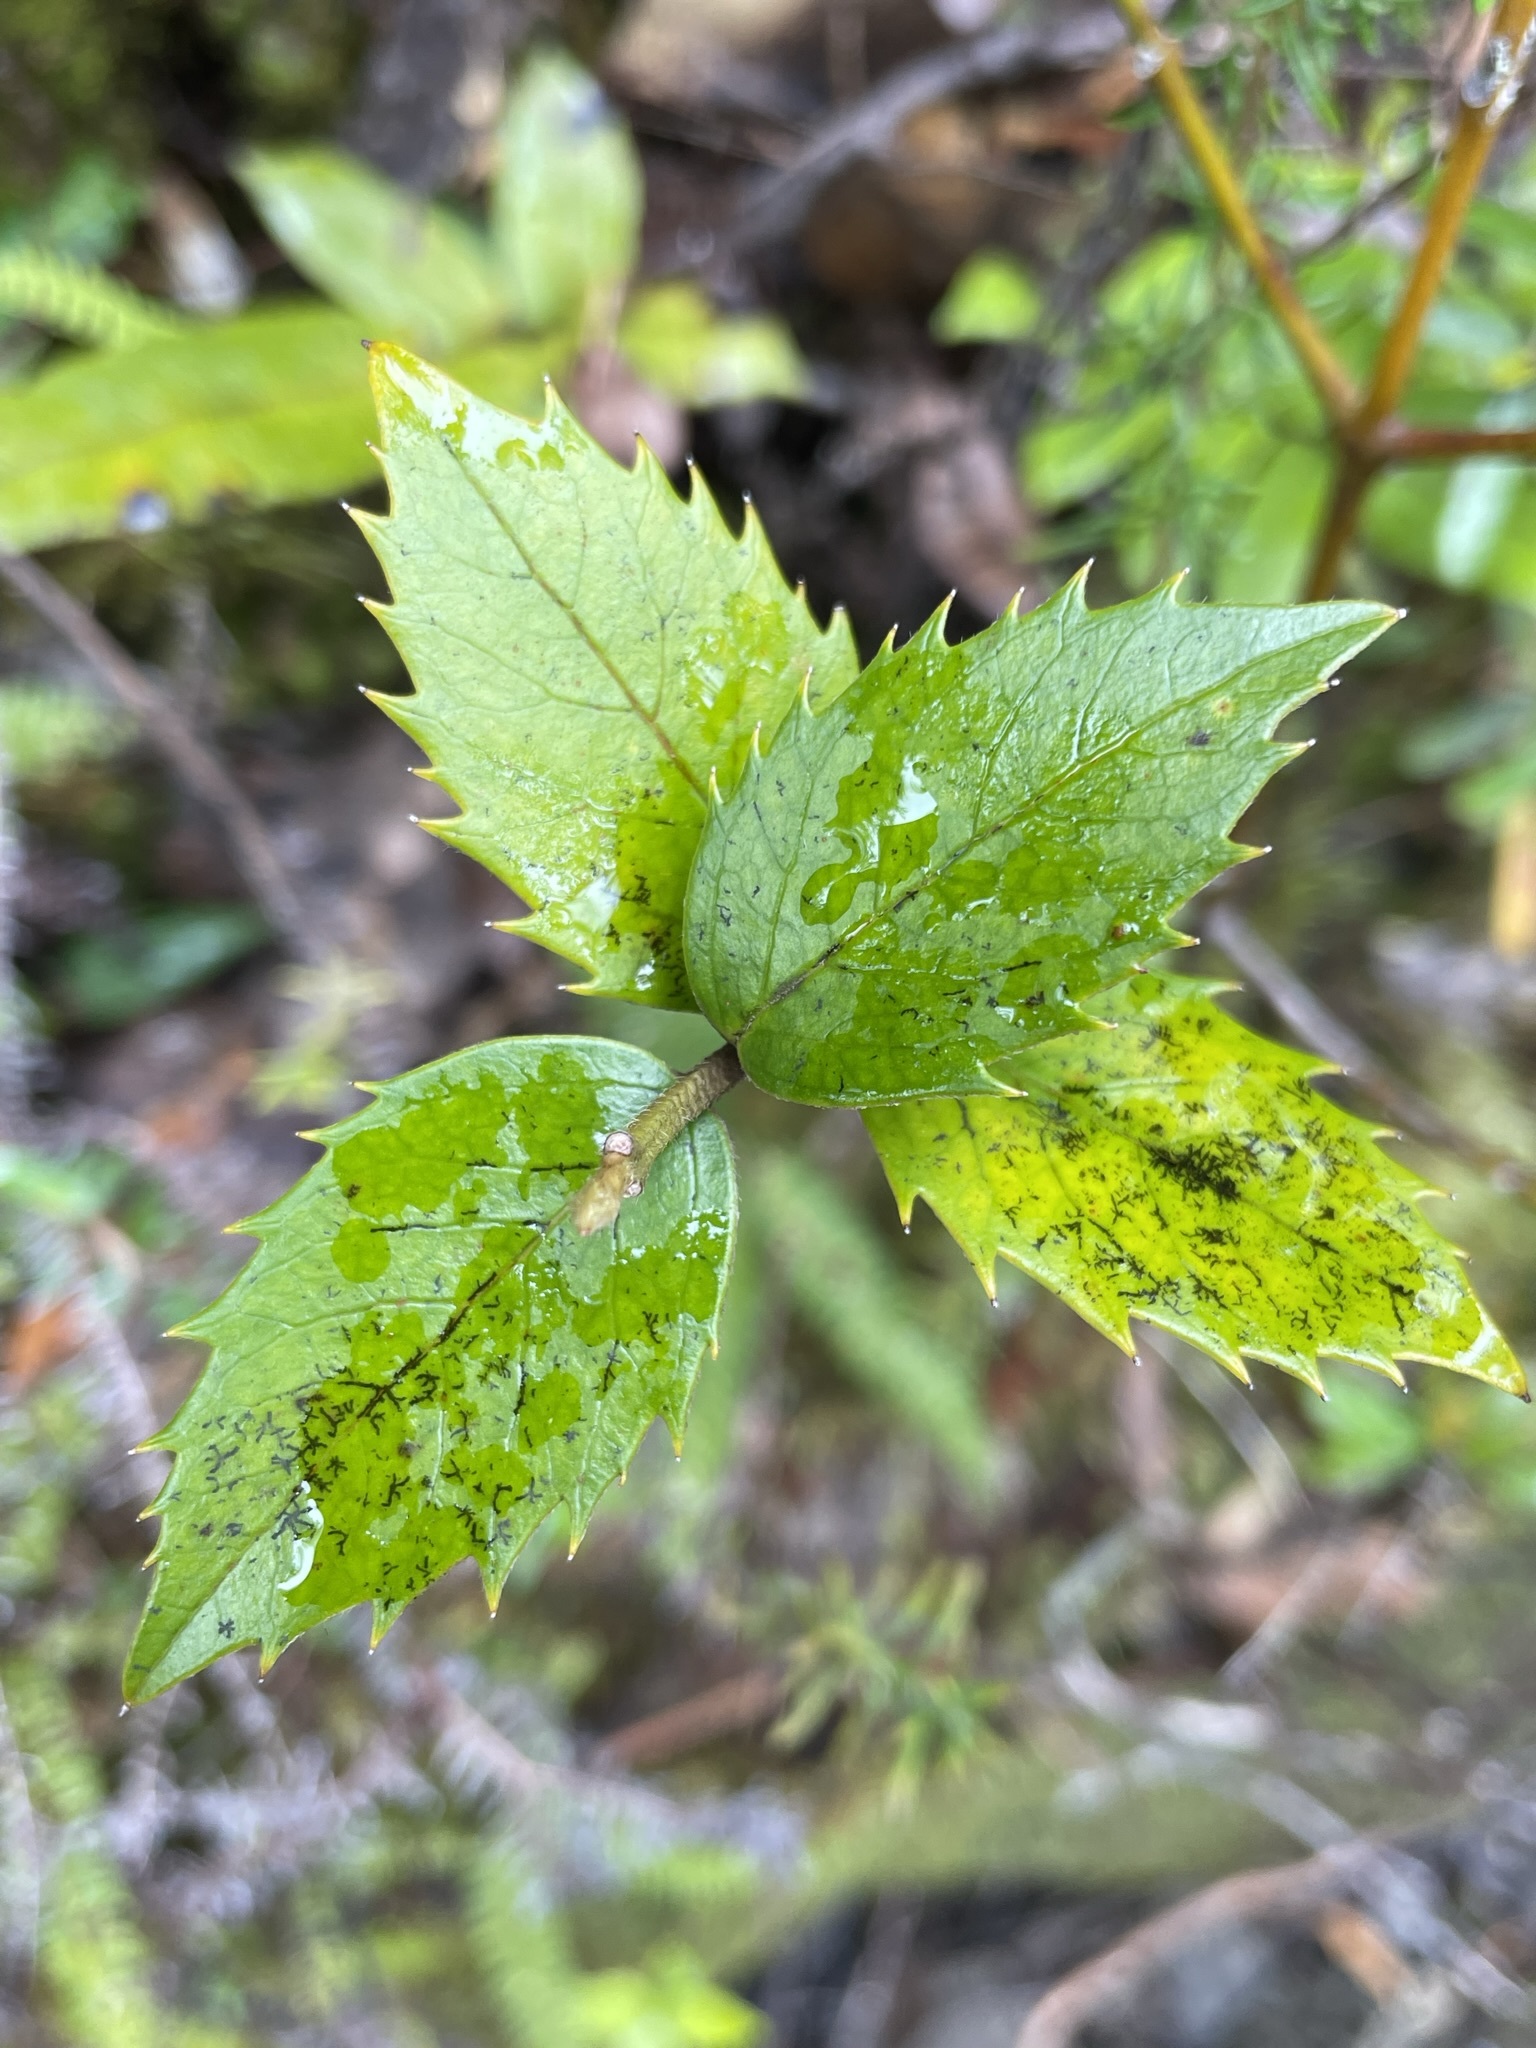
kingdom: Plantae
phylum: Tracheophyta
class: Magnoliopsida
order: Laurales
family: Atherospermataceae
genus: Atherosperma
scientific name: Atherosperma moschatum
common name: Tasmanian-sassafras
